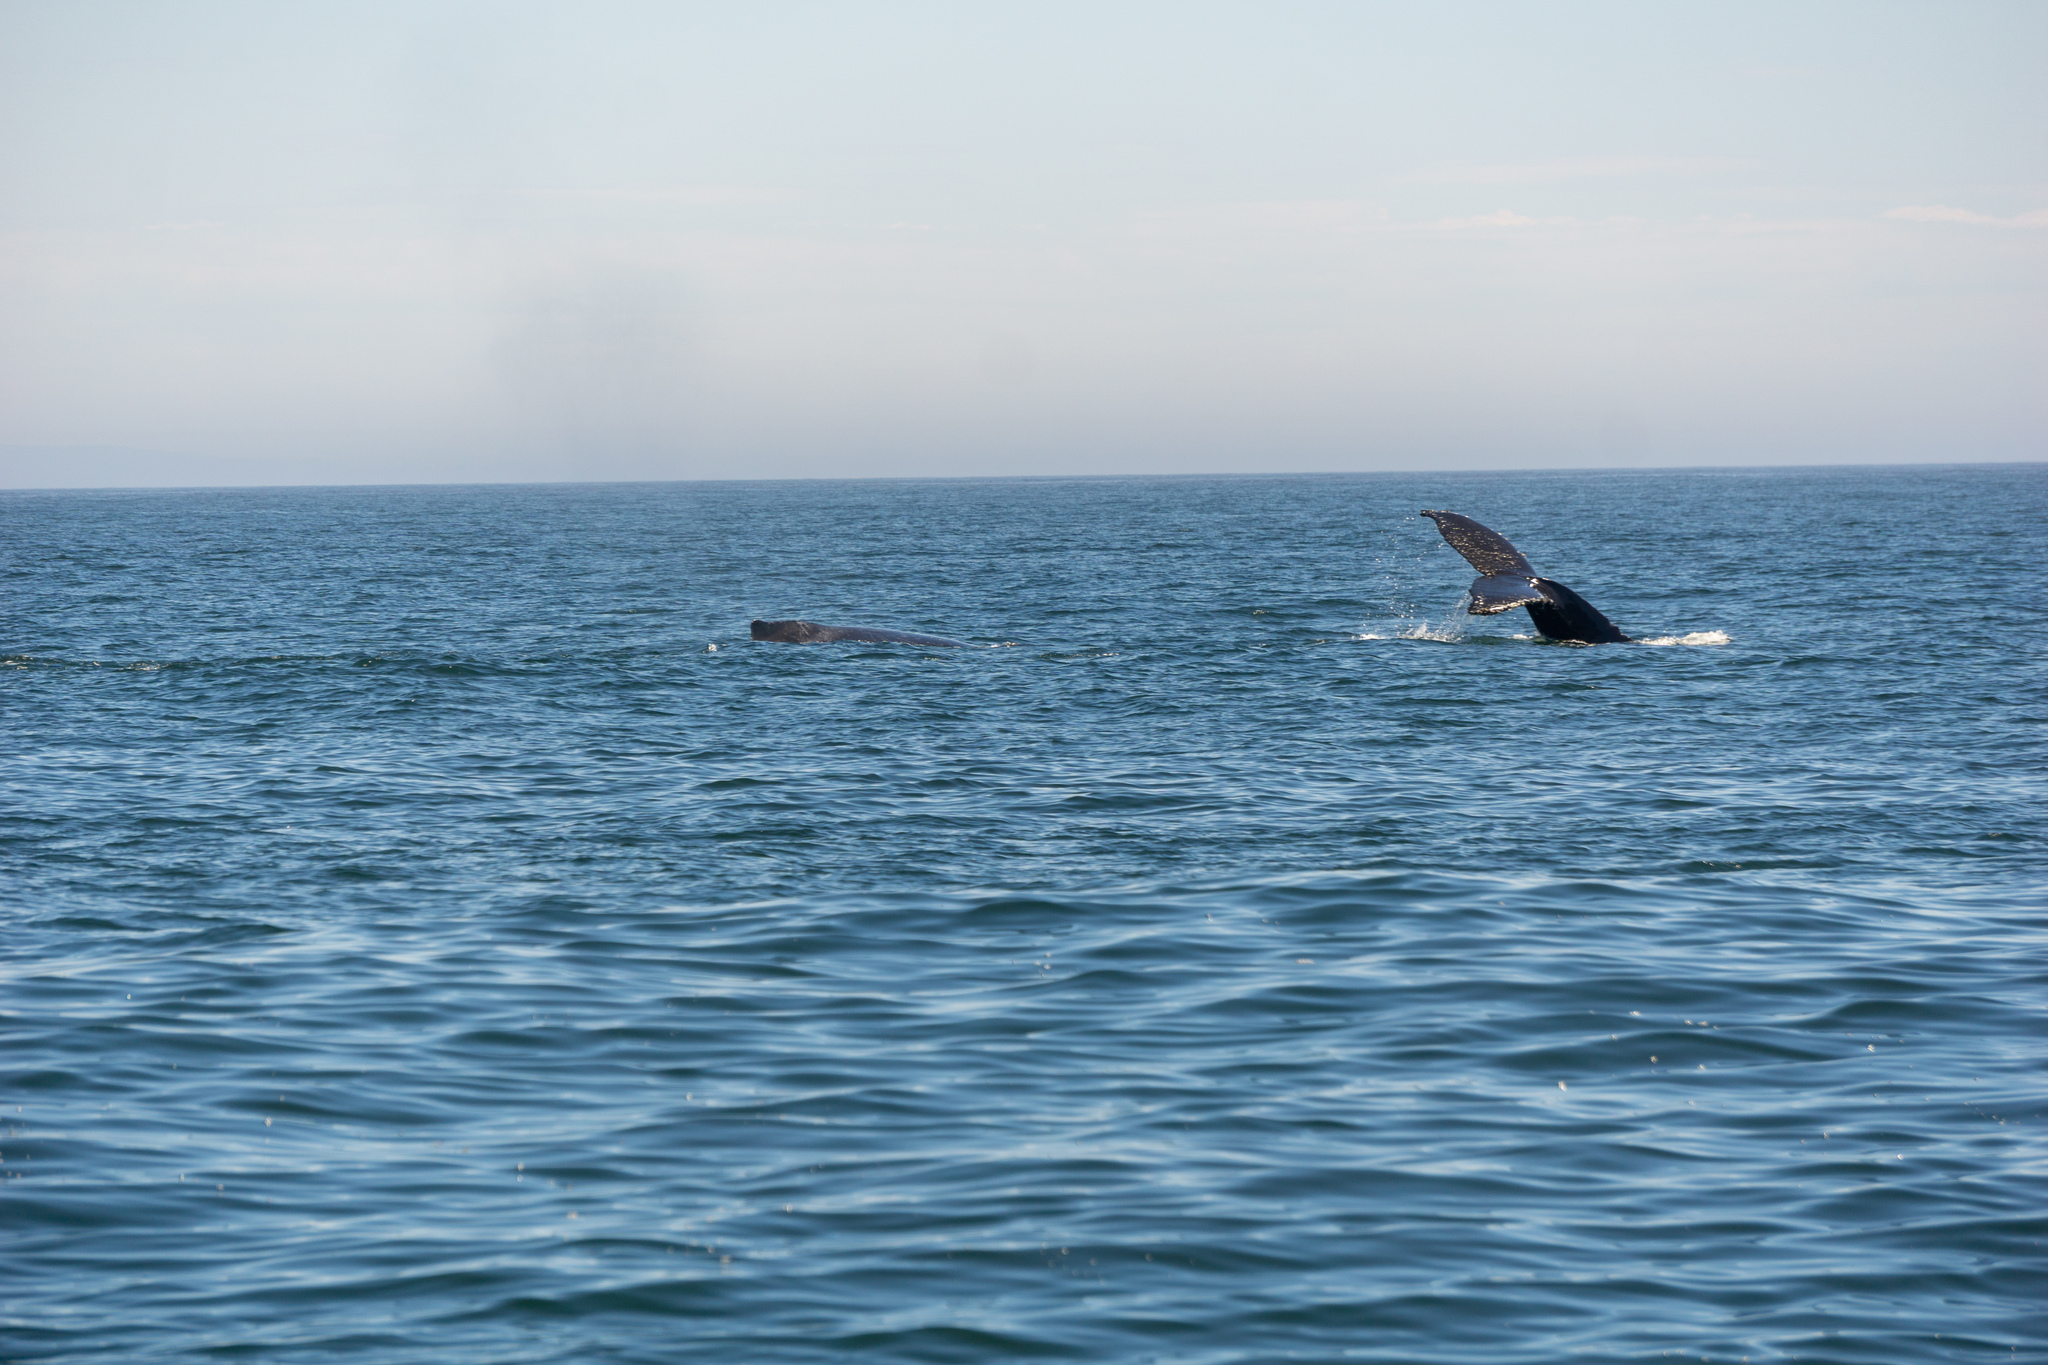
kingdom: Animalia
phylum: Chordata
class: Mammalia
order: Cetacea
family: Balaenopteridae
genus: Megaptera
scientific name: Megaptera novaeangliae
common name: Humpback whale
